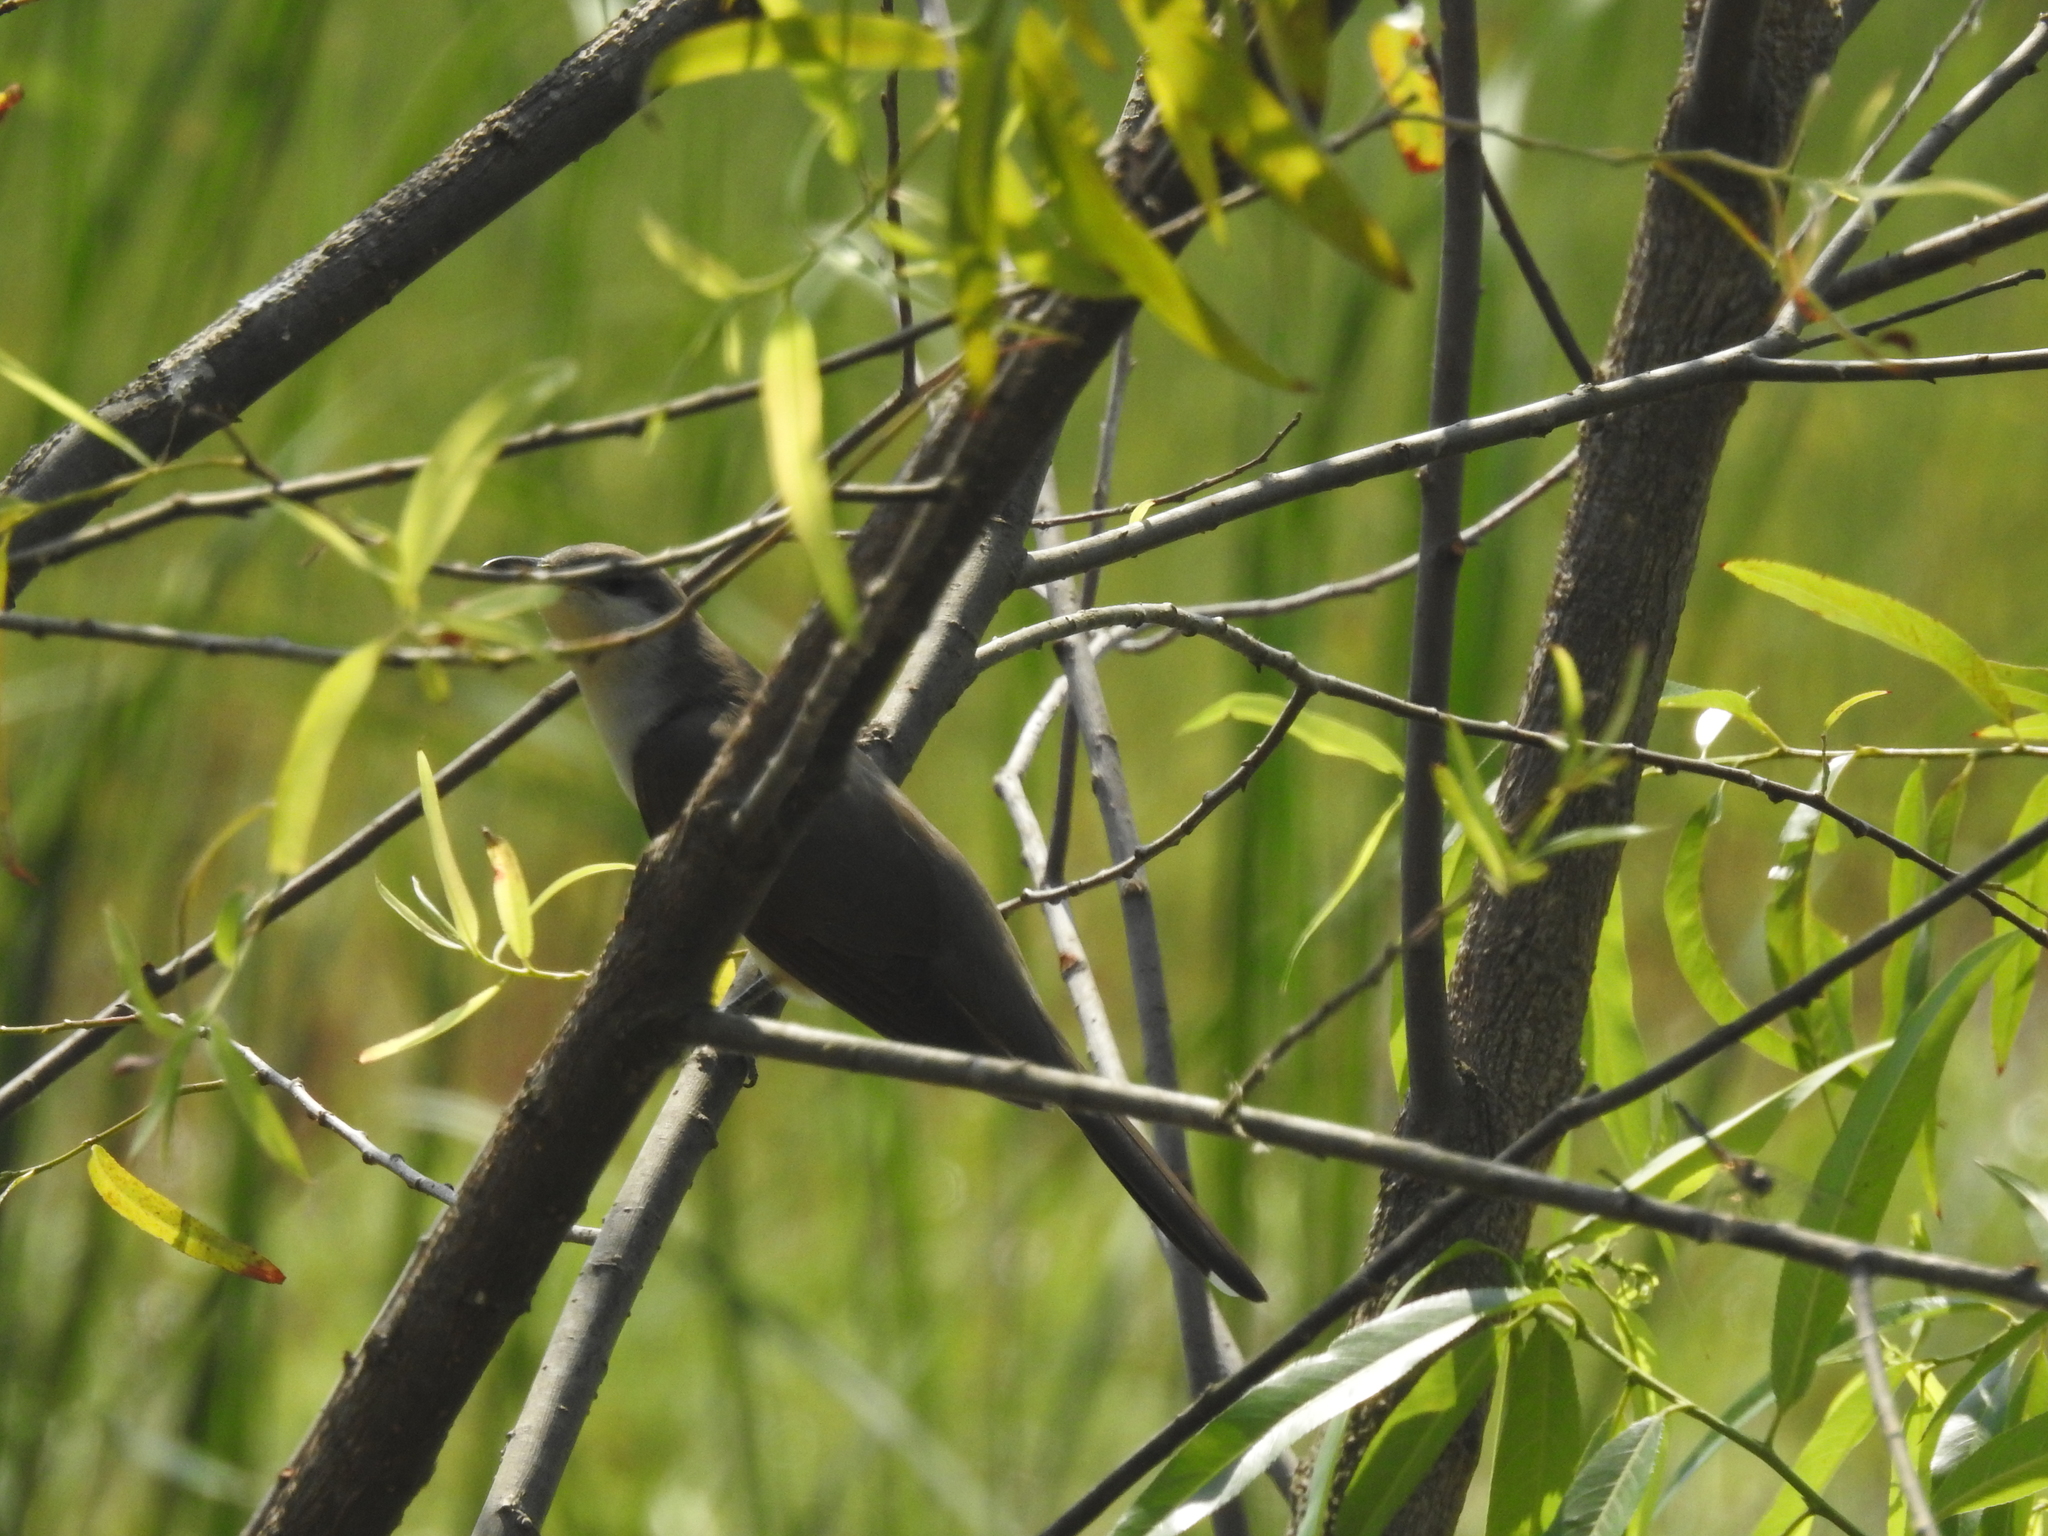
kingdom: Animalia
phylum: Chordata
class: Aves
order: Cuculiformes
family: Cuculidae
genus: Coccyzus
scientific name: Coccyzus americanus
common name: Yellow-billed cuckoo
